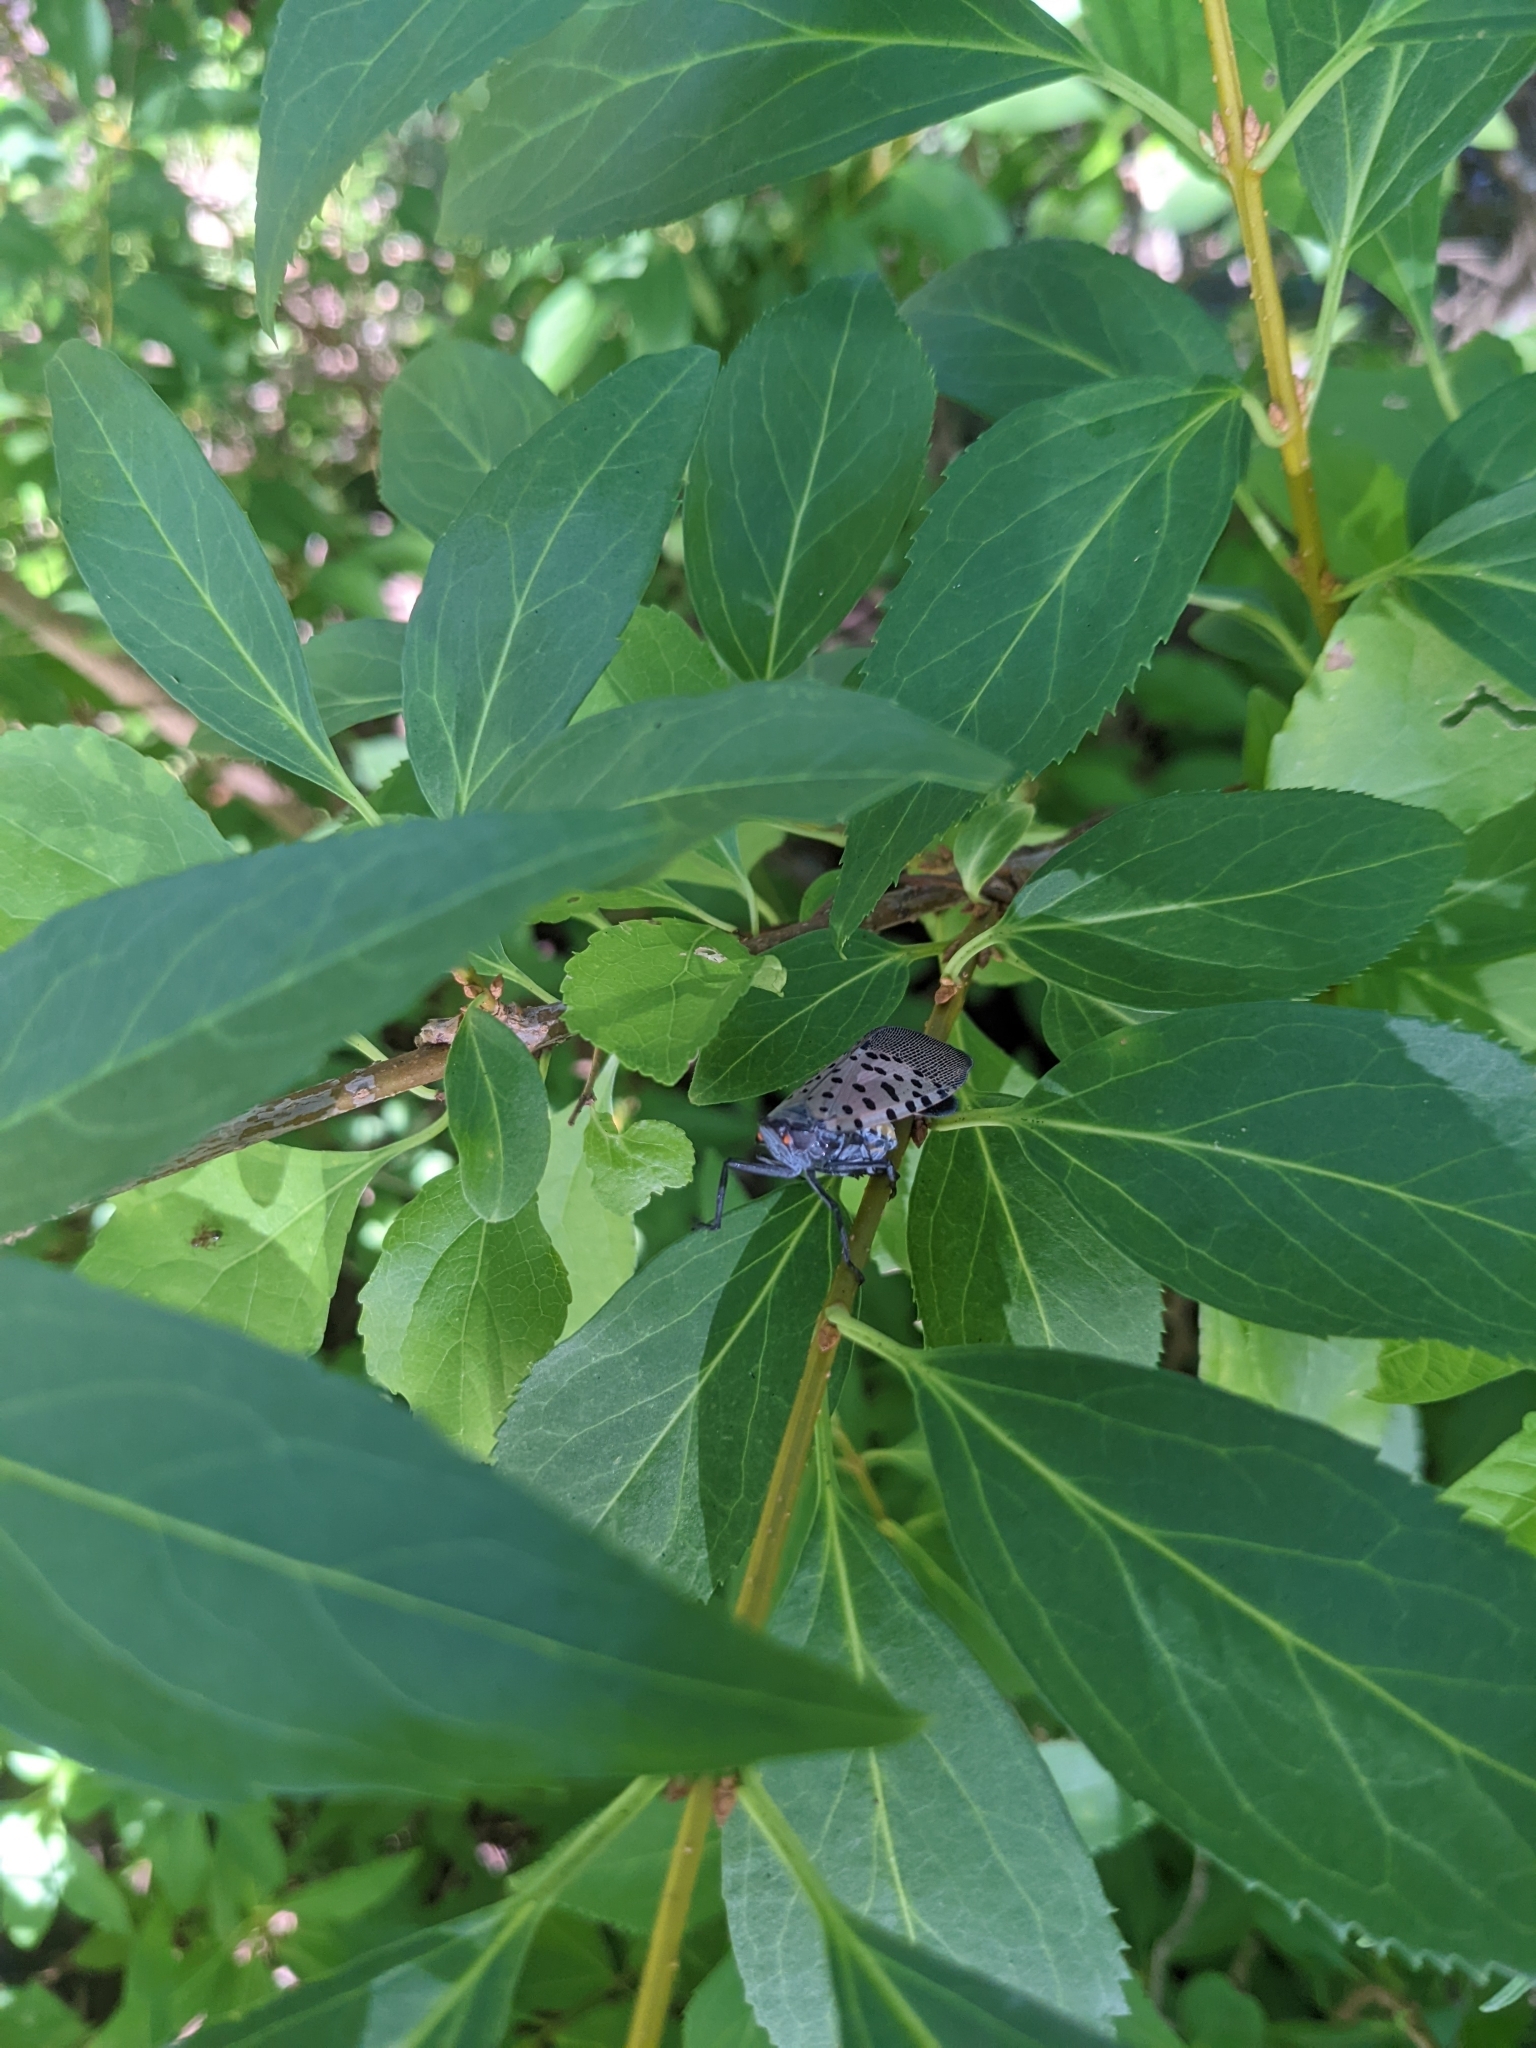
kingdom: Animalia
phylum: Arthropoda
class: Insecta
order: Hemiptera
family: Fulgoridae
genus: Lycorma
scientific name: Lycorma delicatula
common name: Spotted lanternfly
